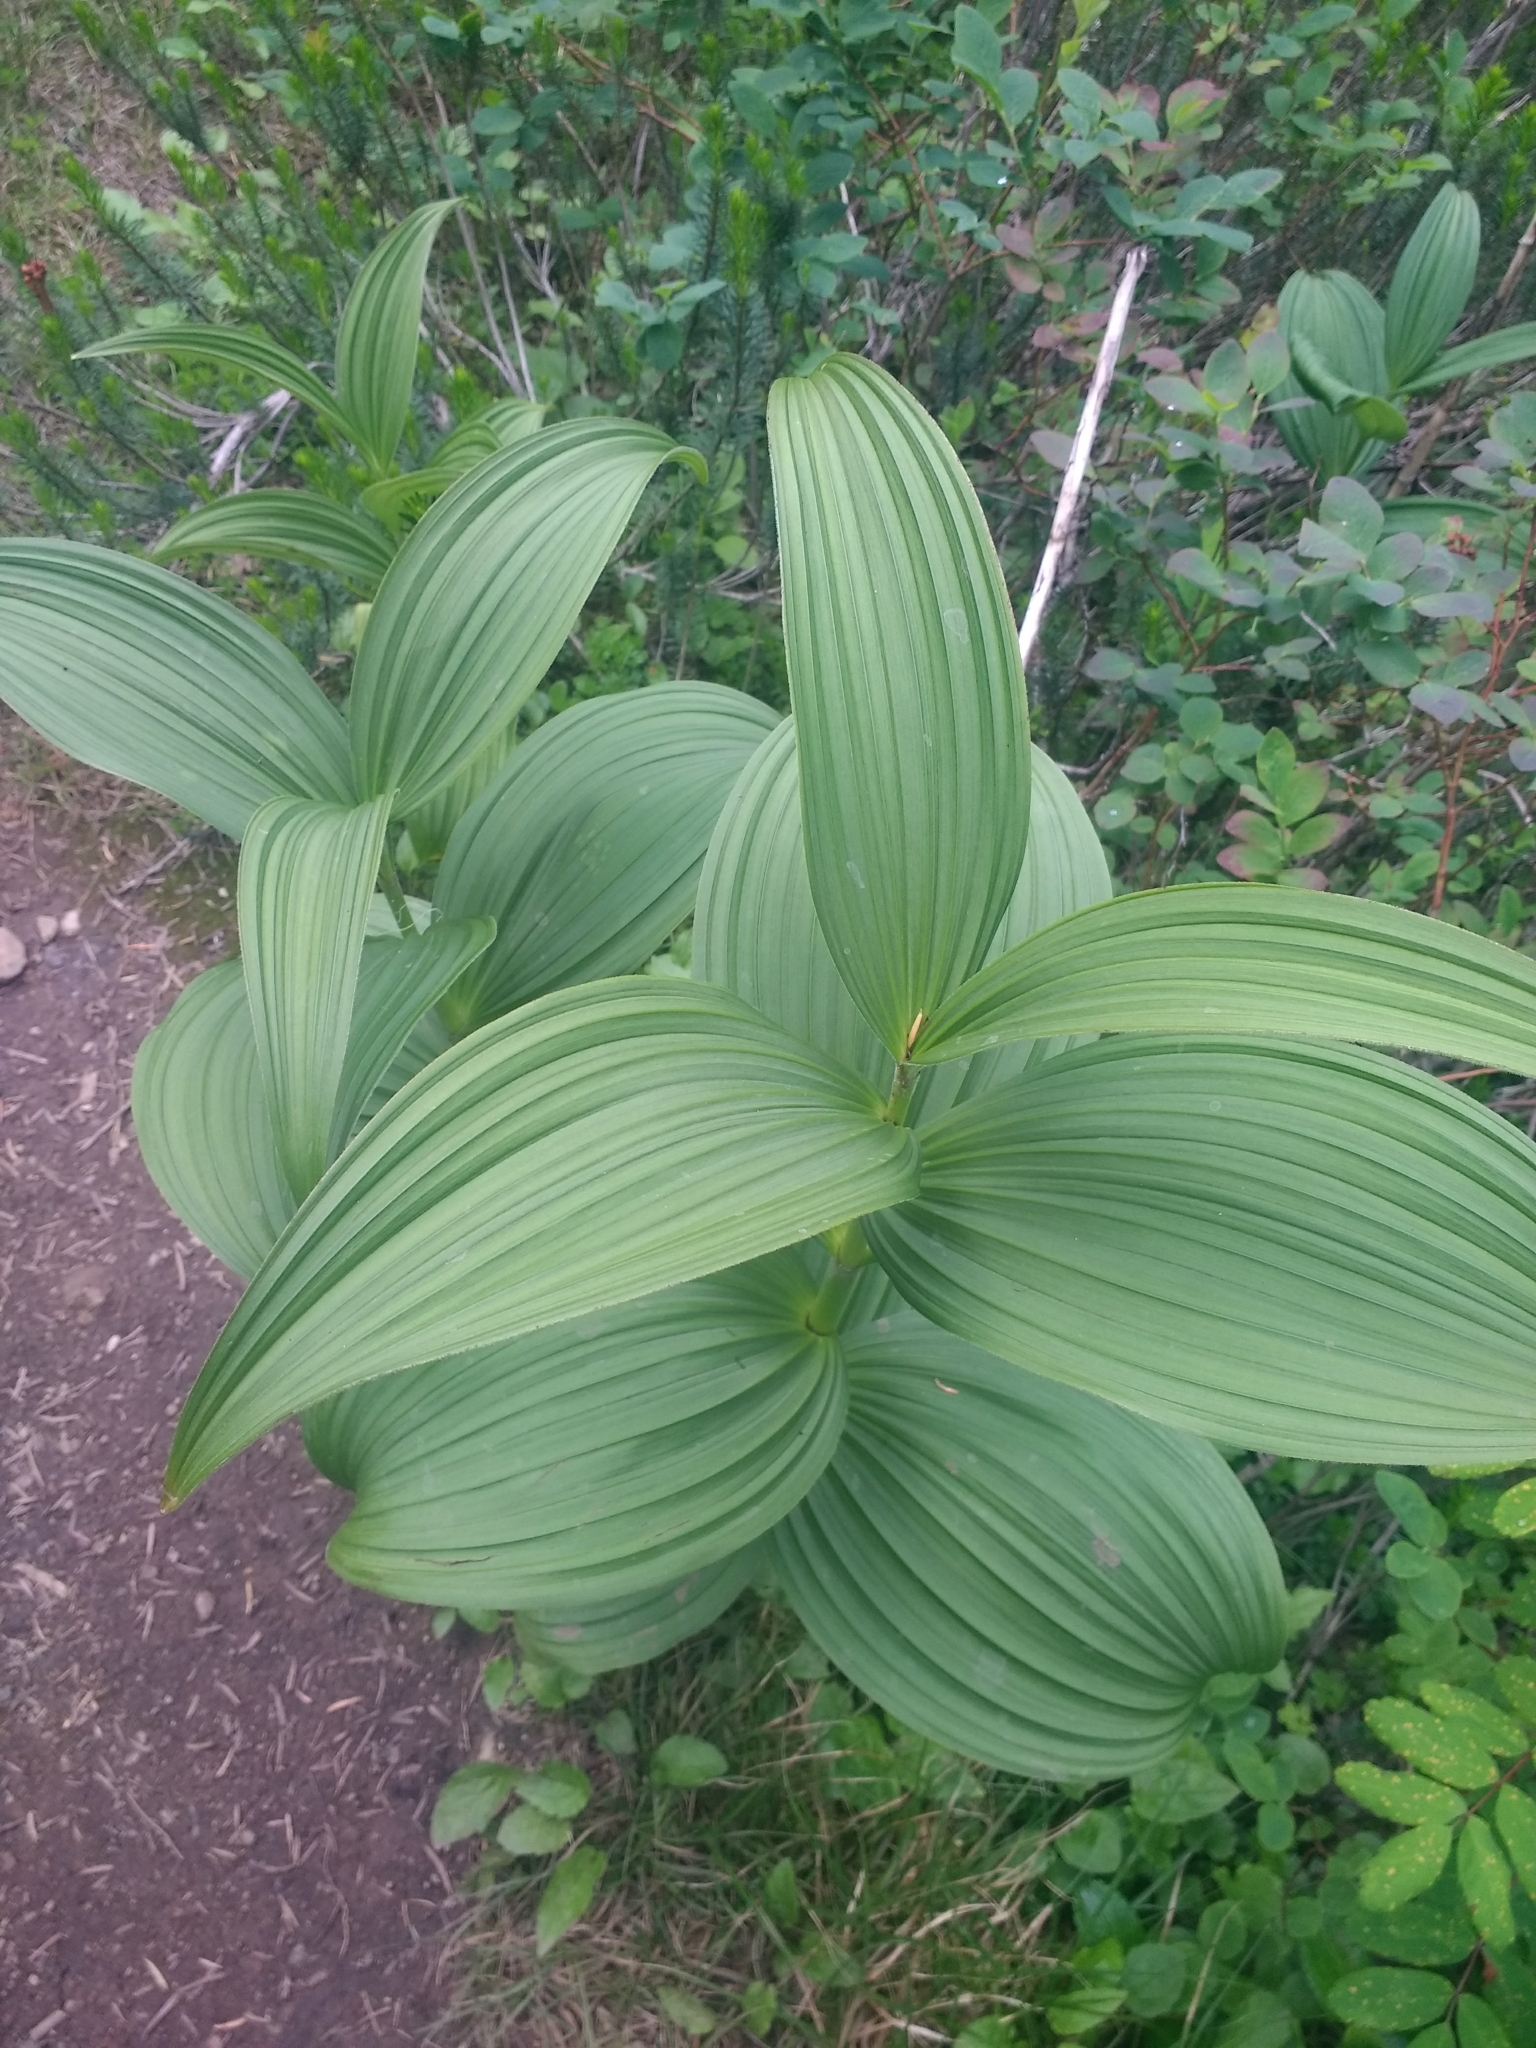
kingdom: Plantae
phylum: Tracheophyta
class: Liliopsida
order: Liliales
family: Melanthiaceae
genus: Veratrum
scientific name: Veratrum viride
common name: American false hellebore
